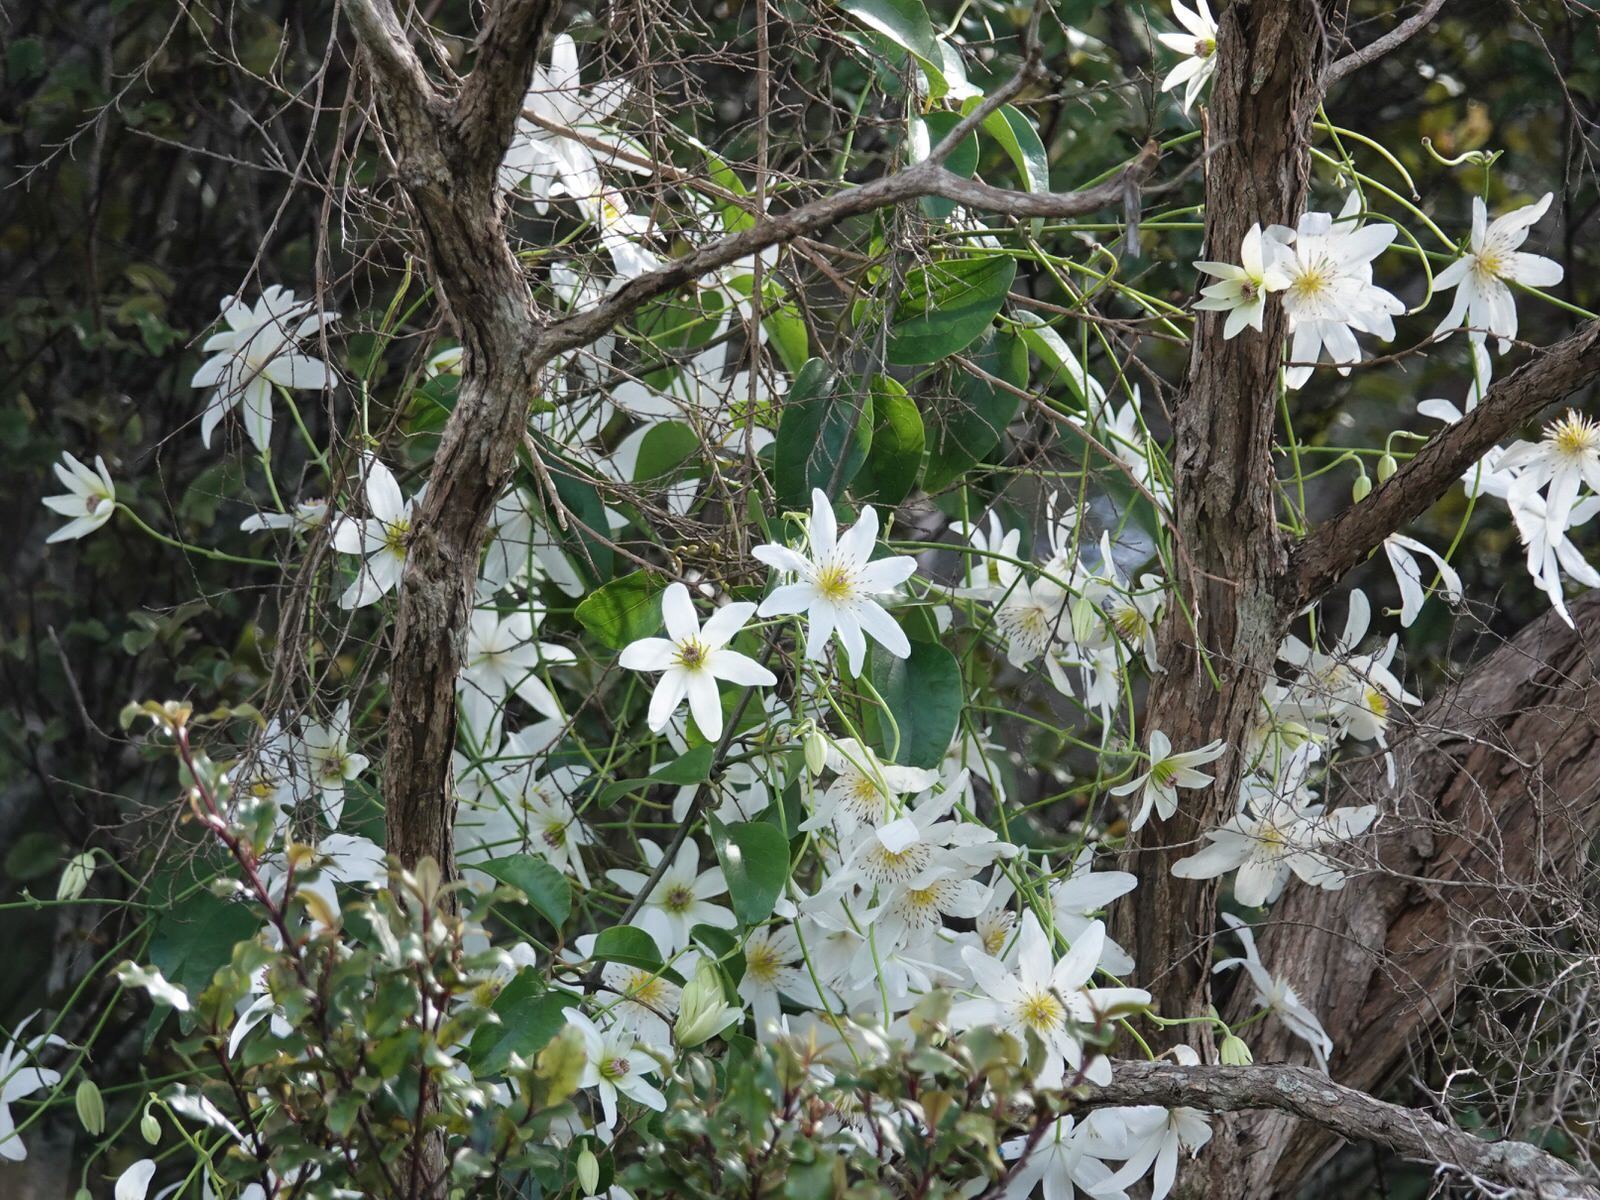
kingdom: Plantae
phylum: Tracheophyta
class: Magnoliopsida
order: Ranunculales
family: Ranunculaceae
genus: Clematis
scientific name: Clematis paniculata
